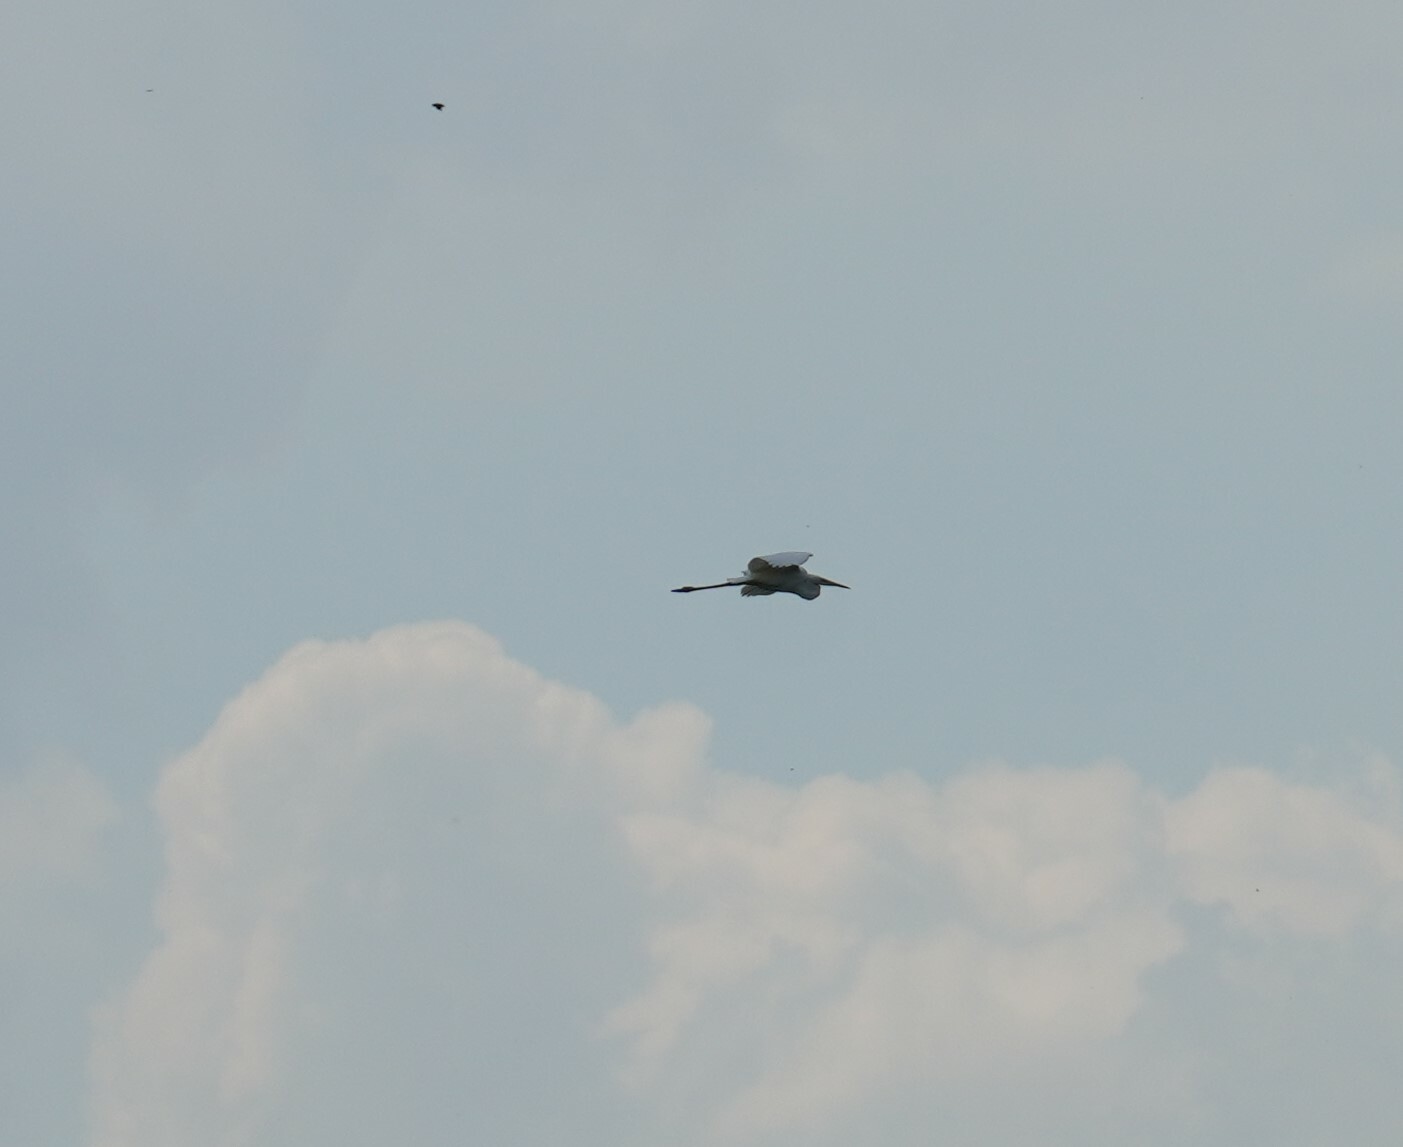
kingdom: Animalia
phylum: Chordata
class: Aves
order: Pelecaniformes
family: Ardeidae
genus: Ardea
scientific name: Ardea alba
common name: Great egret
